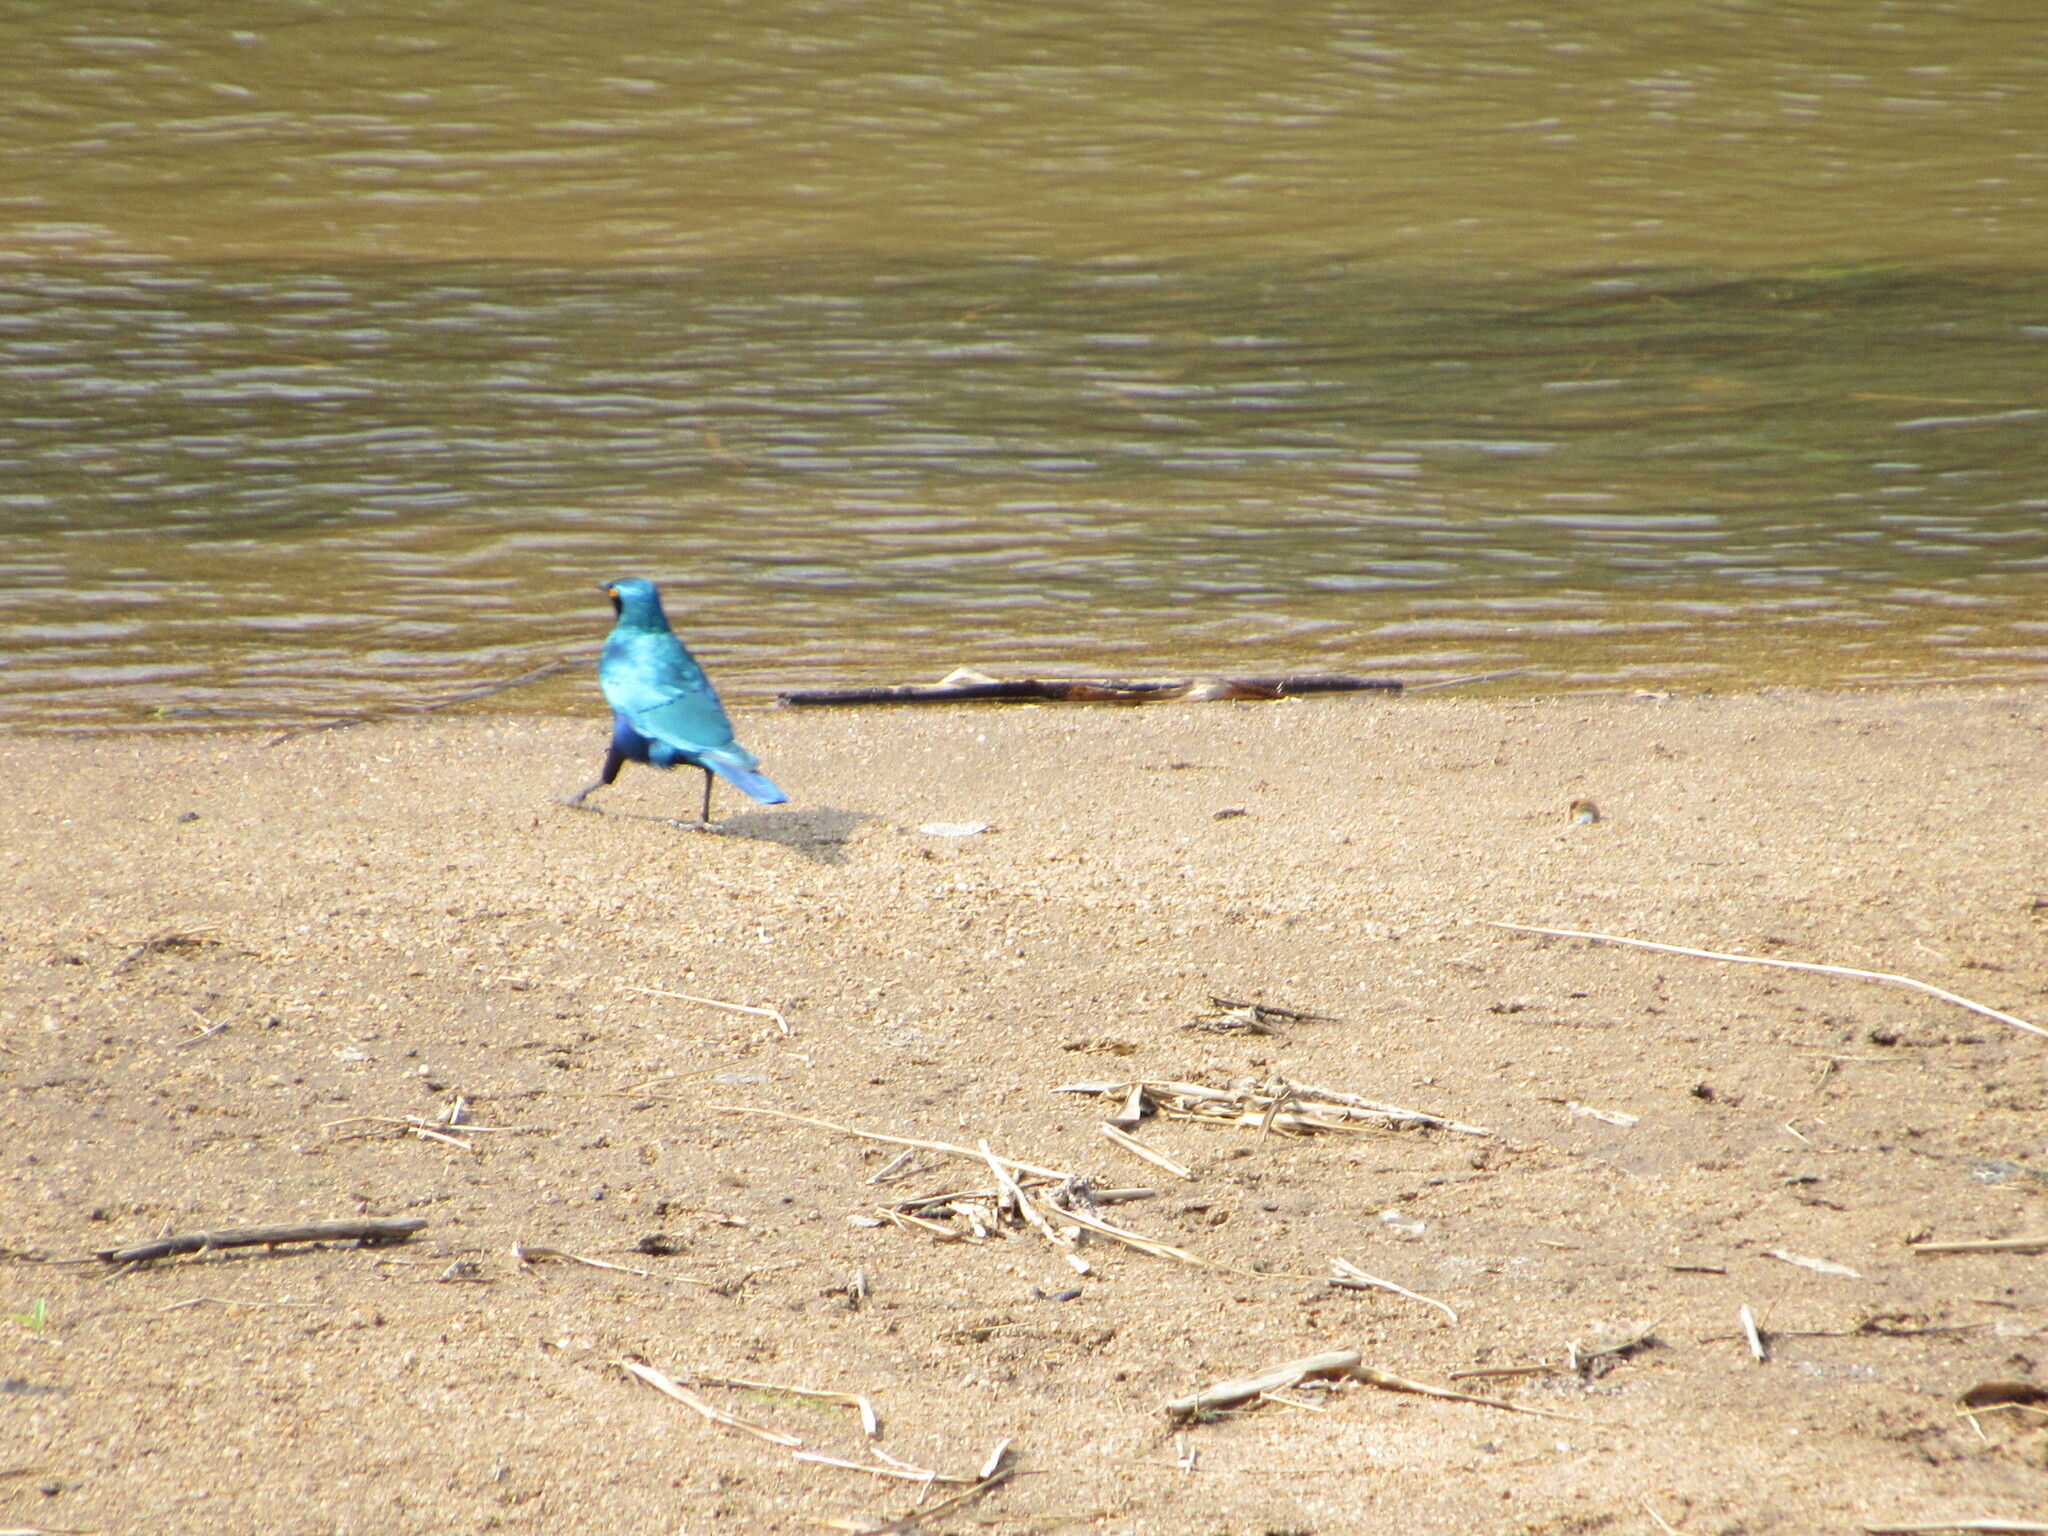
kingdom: Animalia
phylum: Chordata
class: Aves
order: Passeriformes
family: Sturnidae
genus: Lamprotornis
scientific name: Lamprotornis chalybaeus
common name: Greater blue-eared starling
